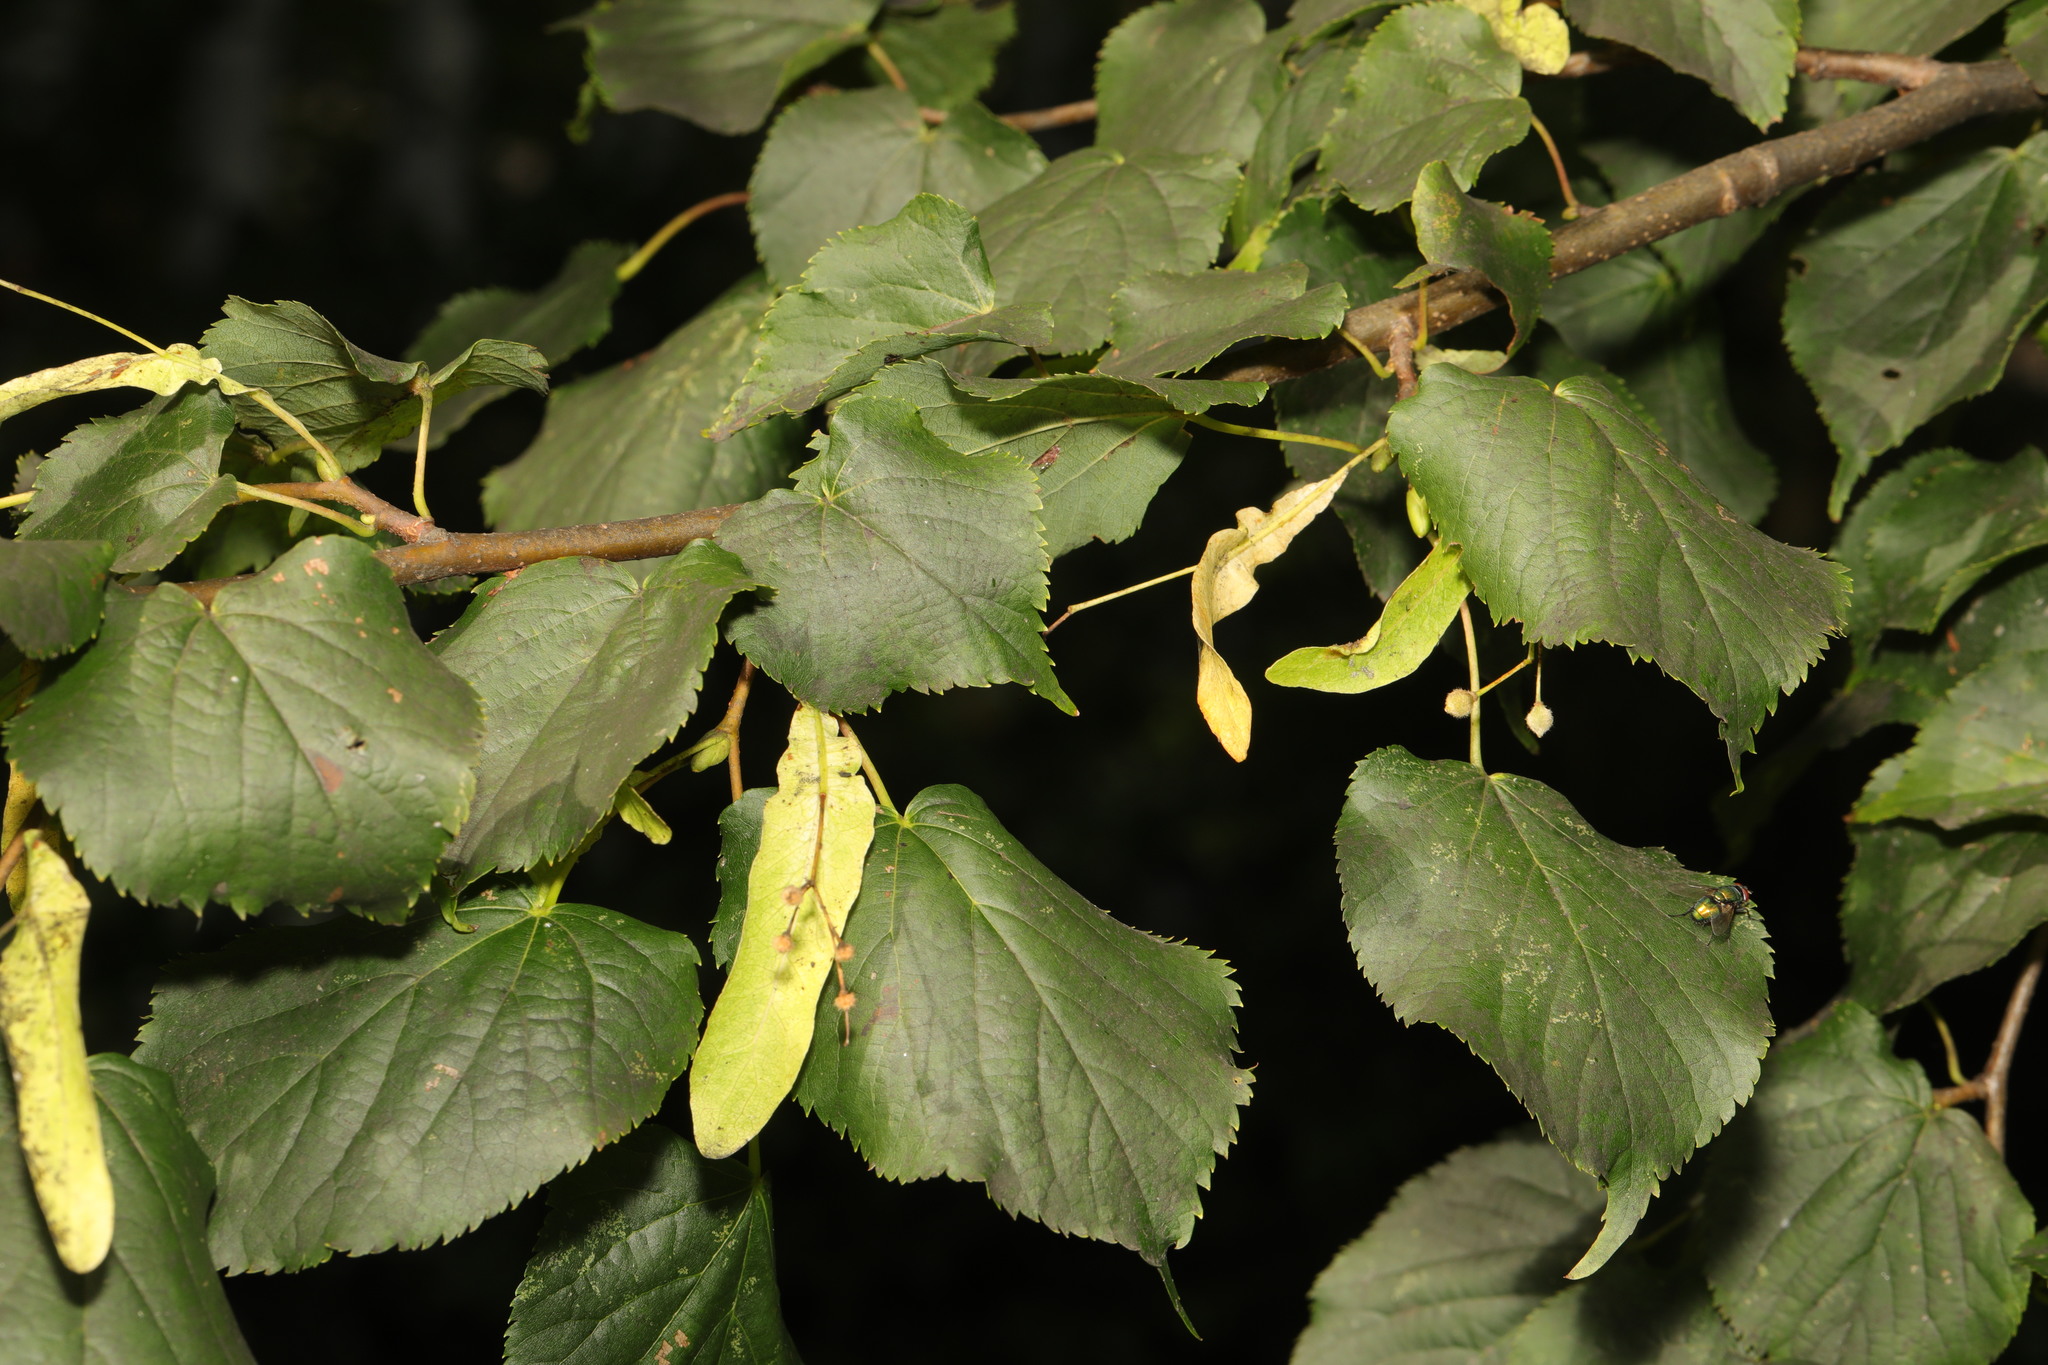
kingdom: Plantae
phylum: Tracheophyta
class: Magnoliopsida
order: Malvales
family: Malvaceae
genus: Tilia
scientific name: Tilia europaea
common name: European linden
